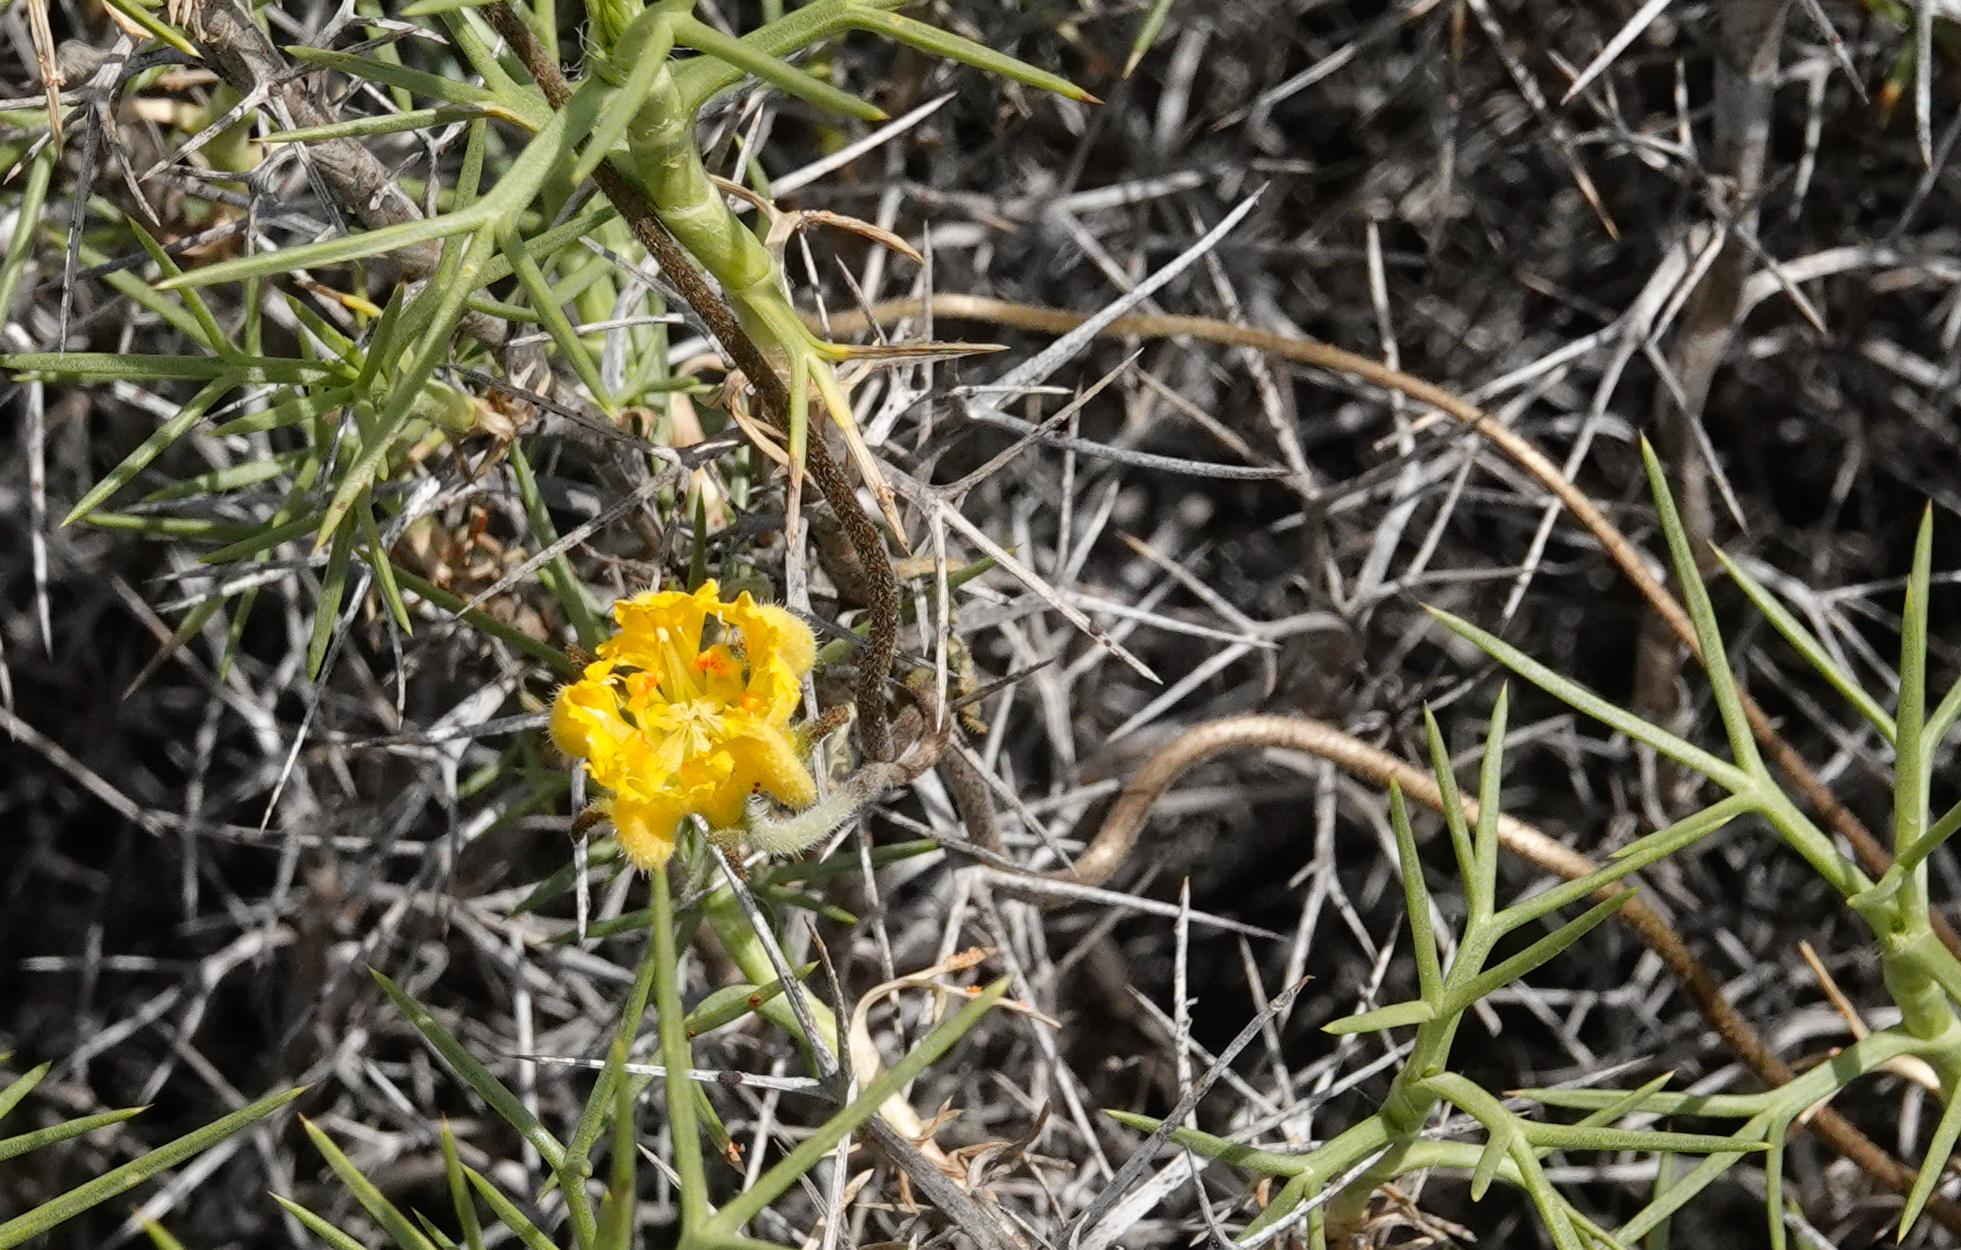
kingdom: Plantae
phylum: Tracheophyta
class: Magnoliopsida
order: Cornales
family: Loasaceae
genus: Pinnasa
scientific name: Pinnasa bergii
